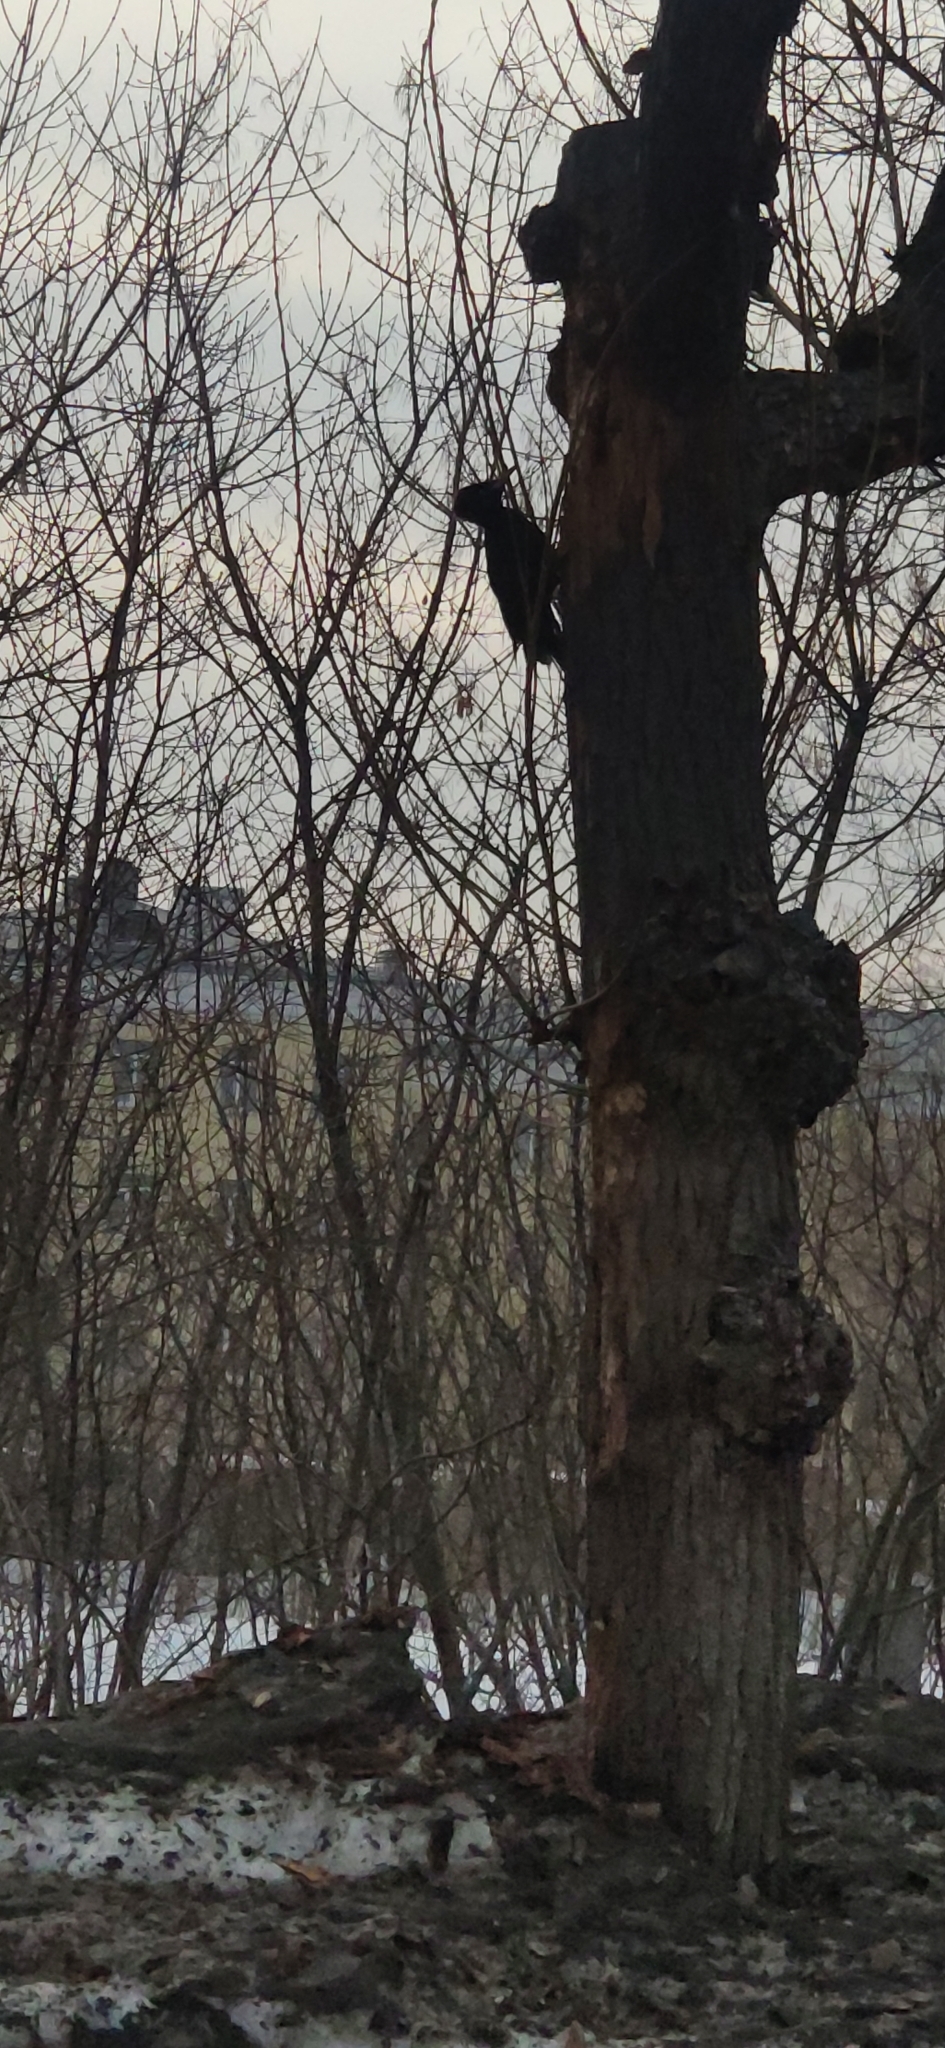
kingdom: Animalia
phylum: Chordata
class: Aves
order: Piciformes
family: Picidae
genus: Dryocopus
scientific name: Dryocopus martius
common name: Black woodpecker
